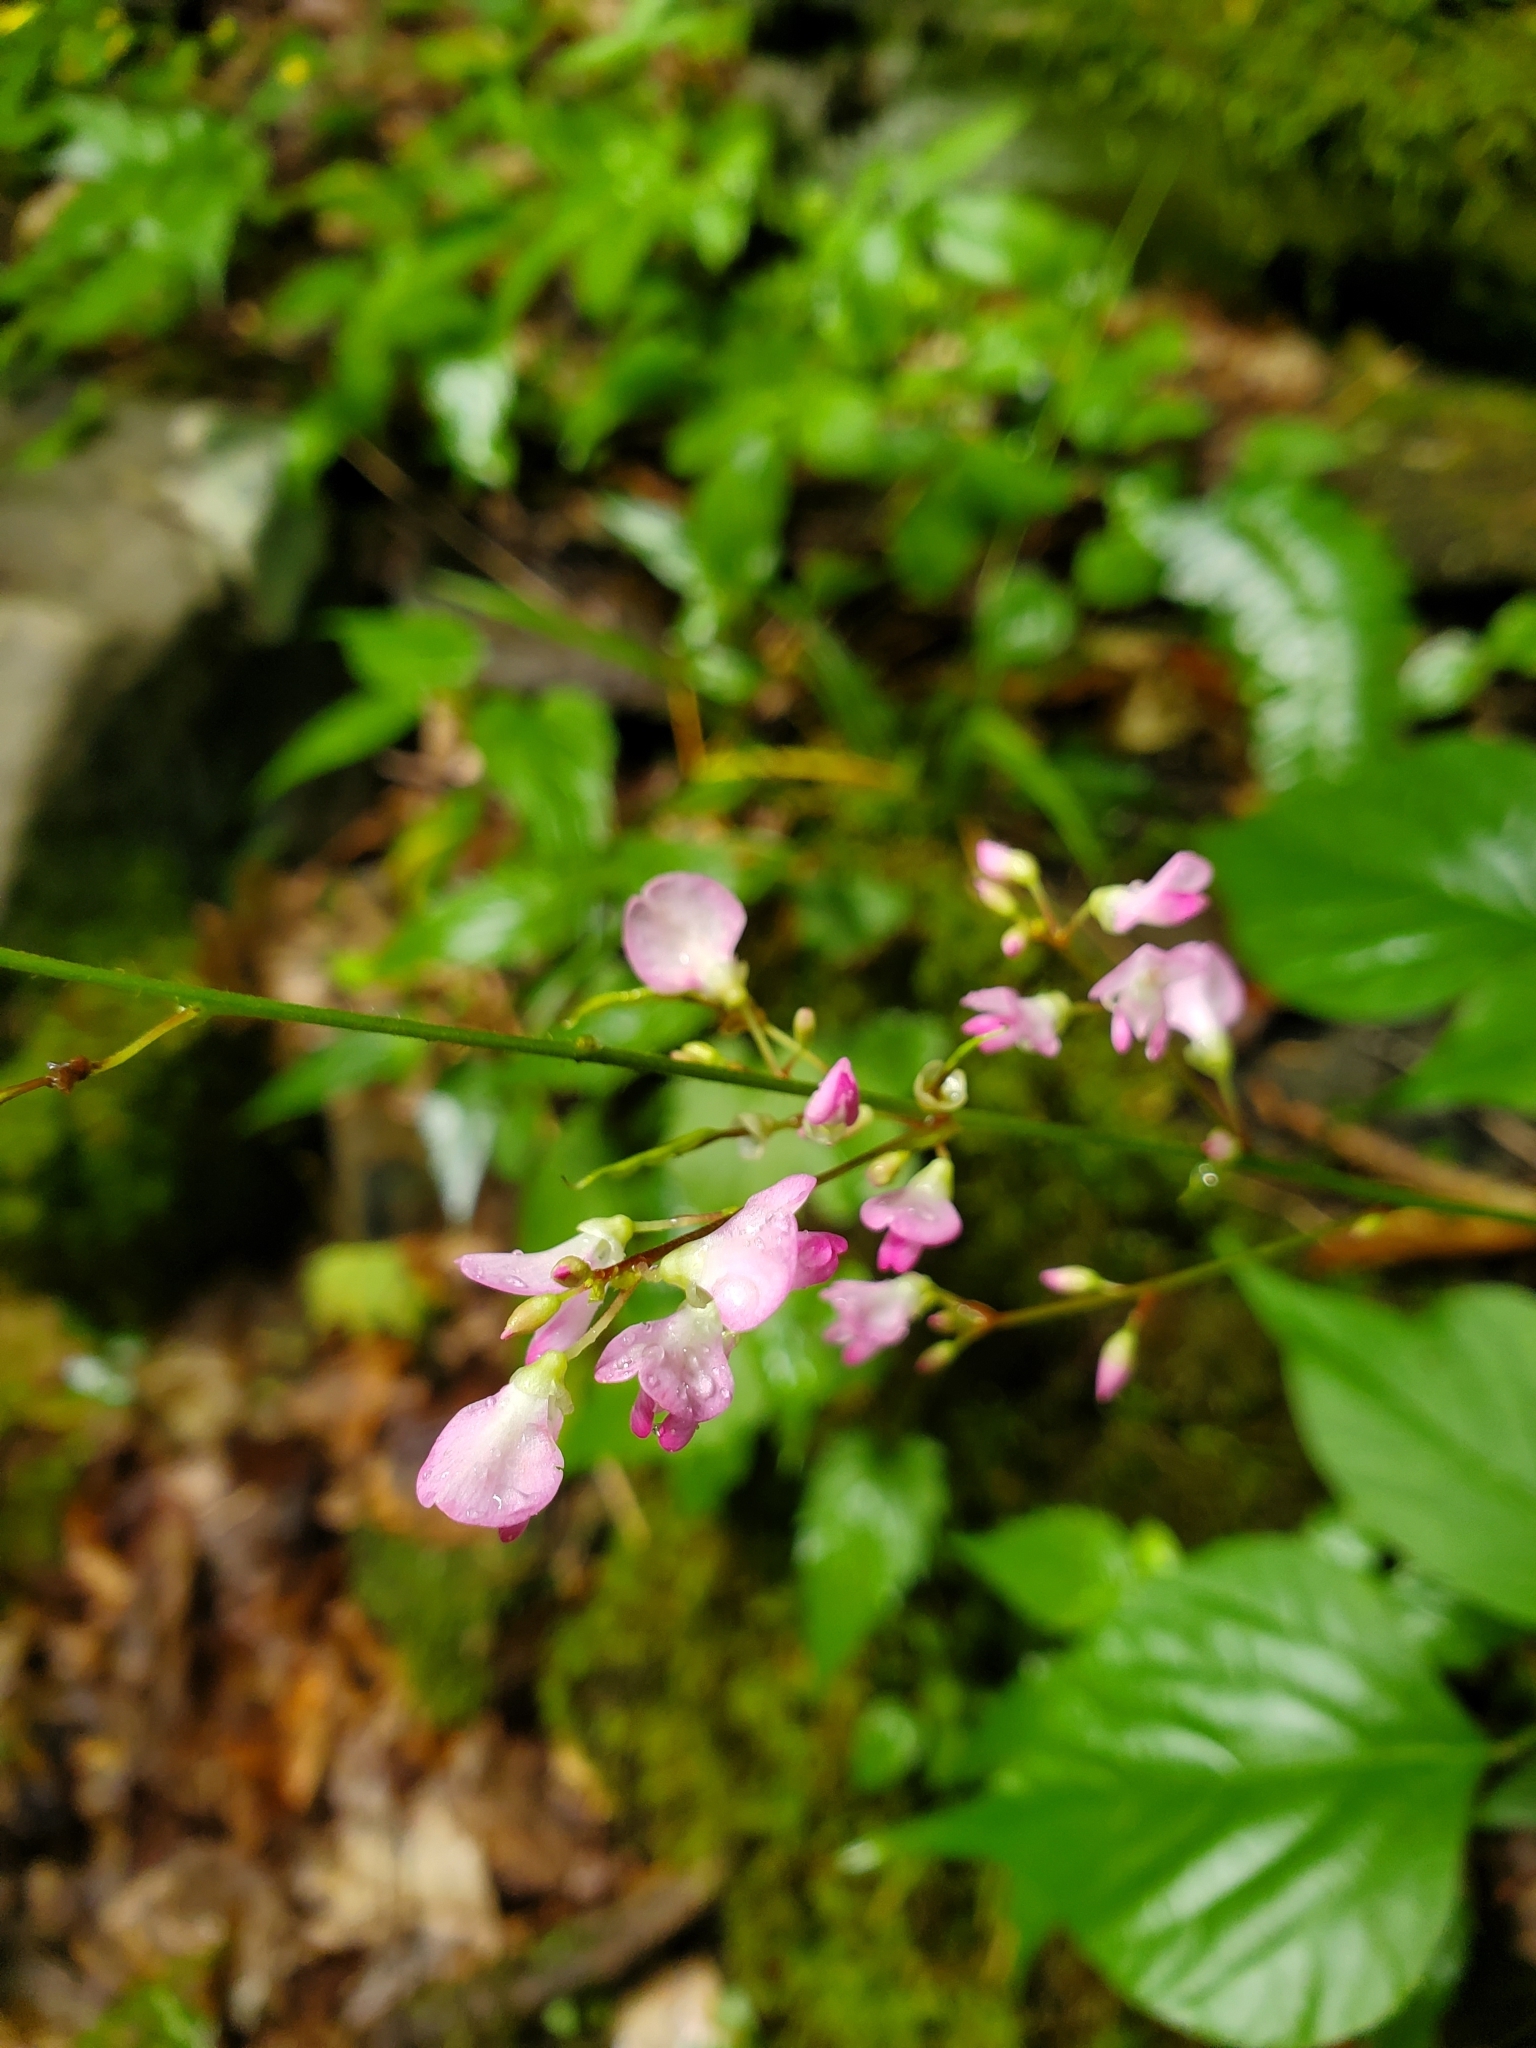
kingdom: Plantae
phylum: Tracheophyta
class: Magnoliopsida
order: Fabales
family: Fabaceae
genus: Hylodesmum
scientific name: Hylodesmum glutinosum
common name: Clustered-leaved tick-trefoil
